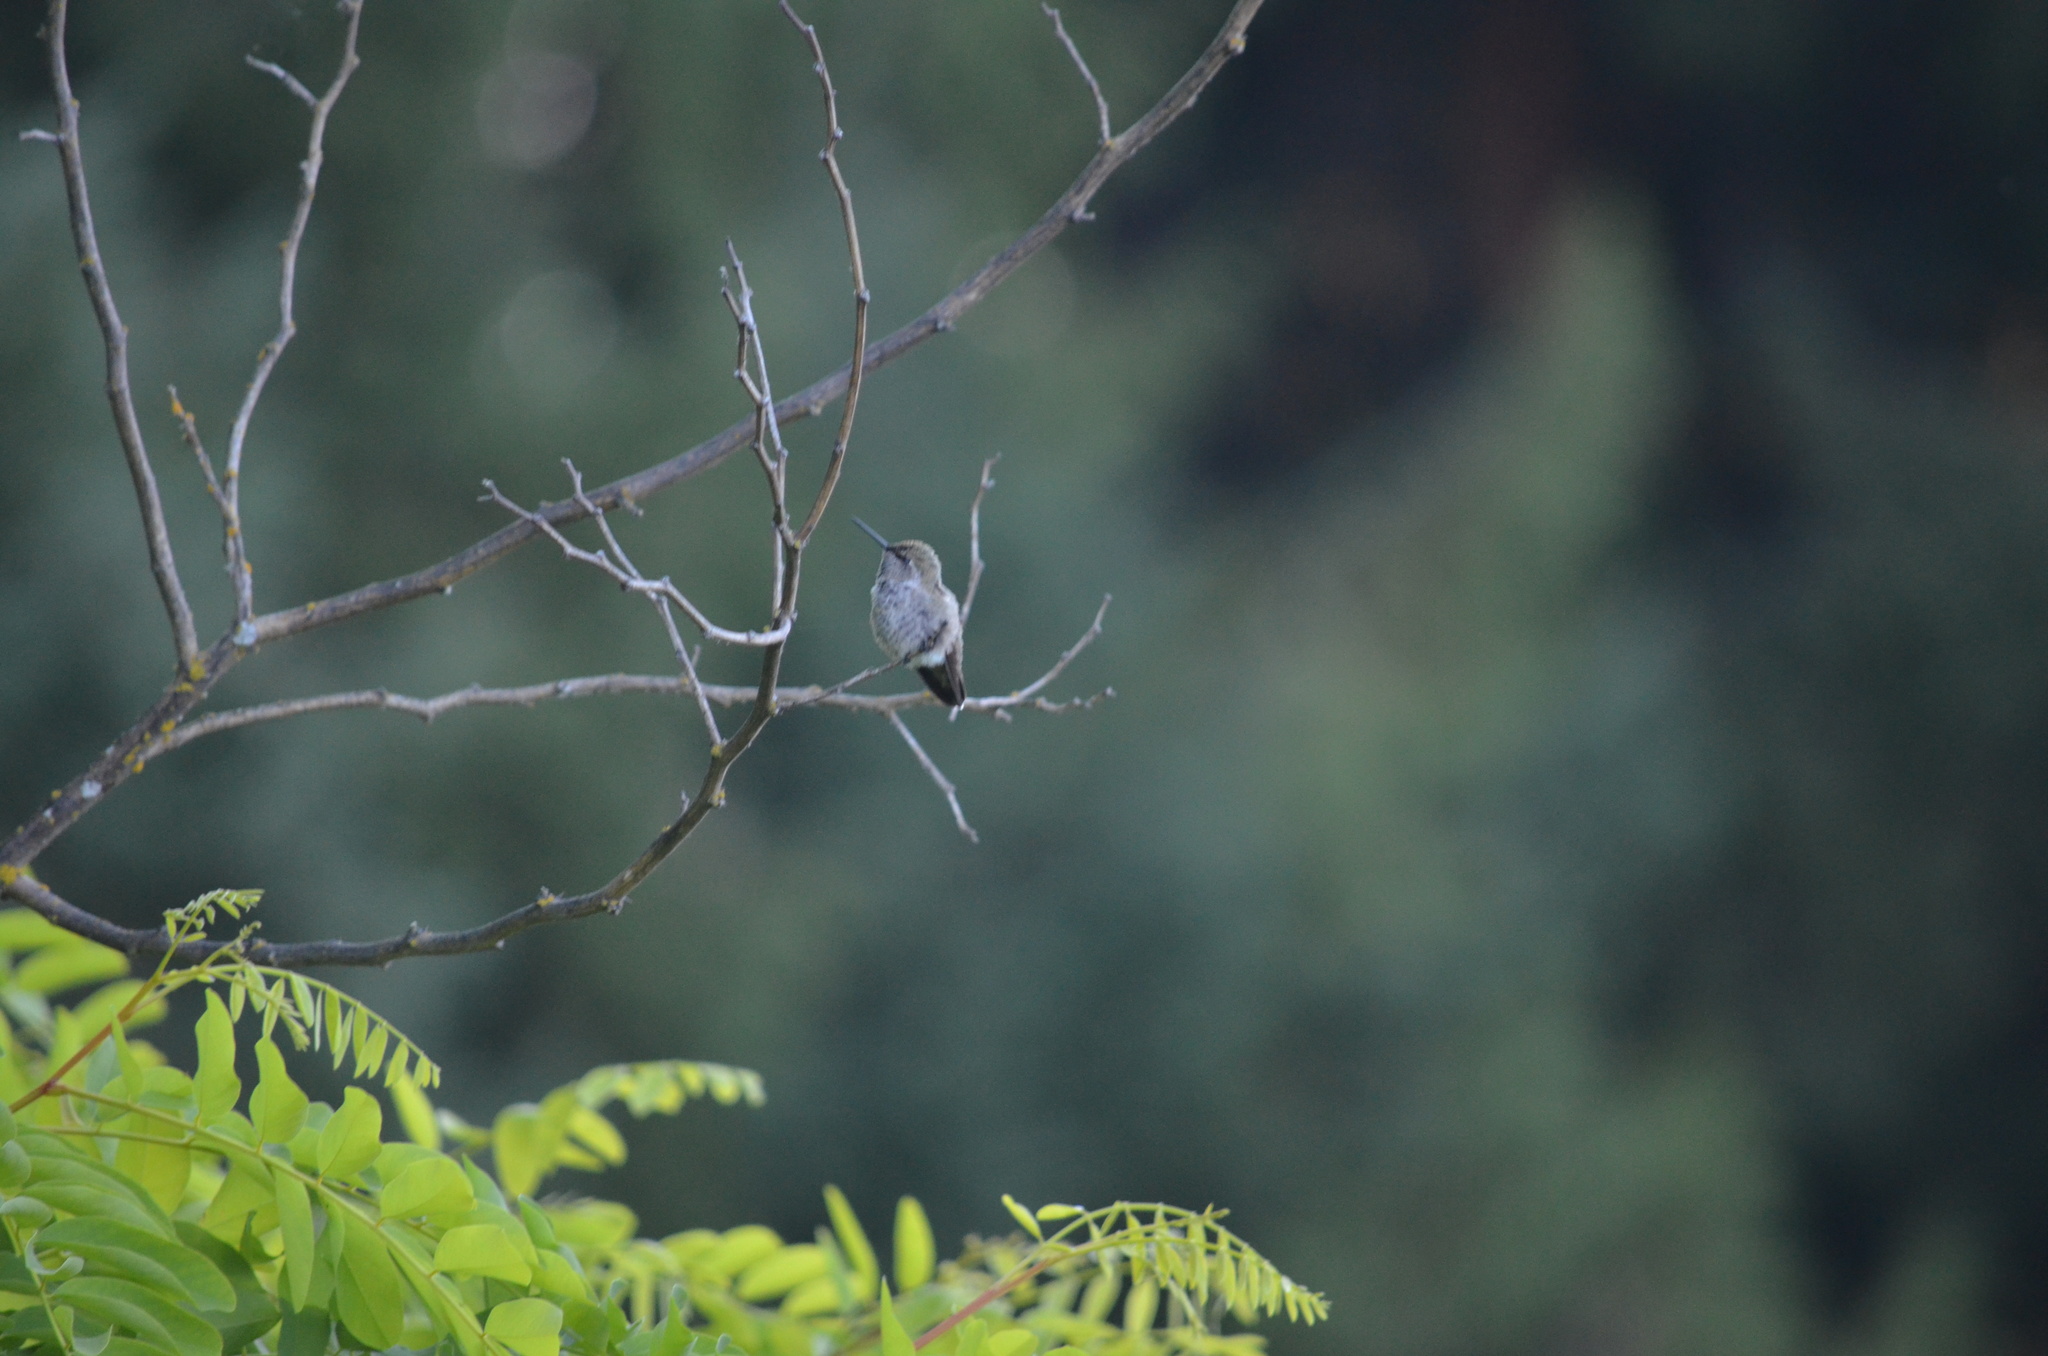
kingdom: Animalia
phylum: Chordata
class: Aves
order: Apodiformes
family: Trochilidae
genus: Calypte
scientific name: Calypte anna
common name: Anna's hummingbird
